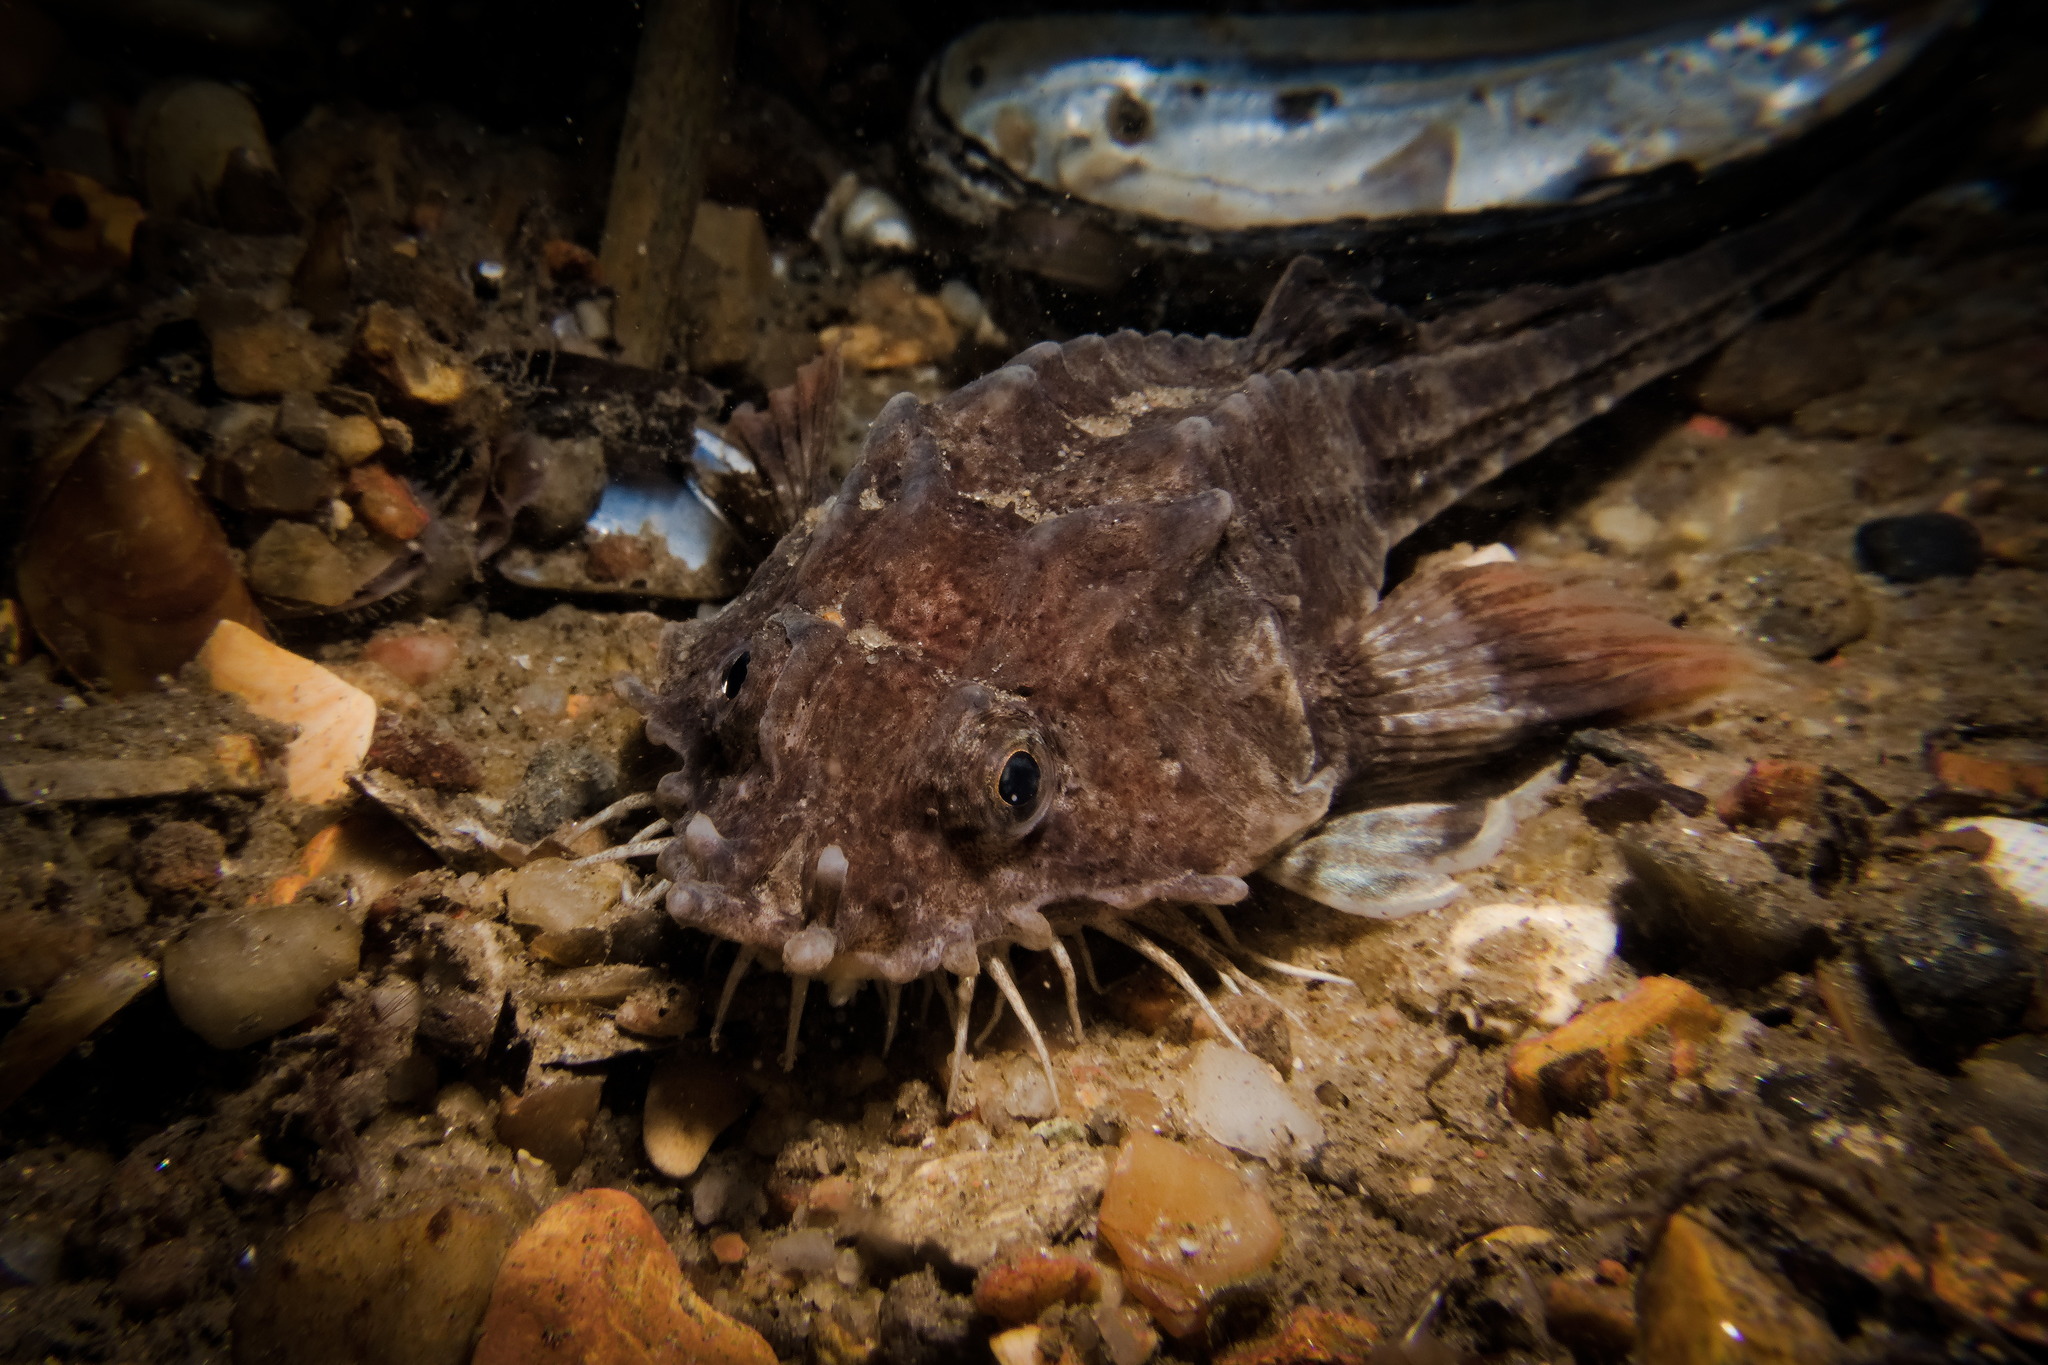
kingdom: Animalia
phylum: Chordata
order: Scorpaeniformes
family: Agonidae
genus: Agonus
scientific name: Agonus cataphractus
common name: Pogge
